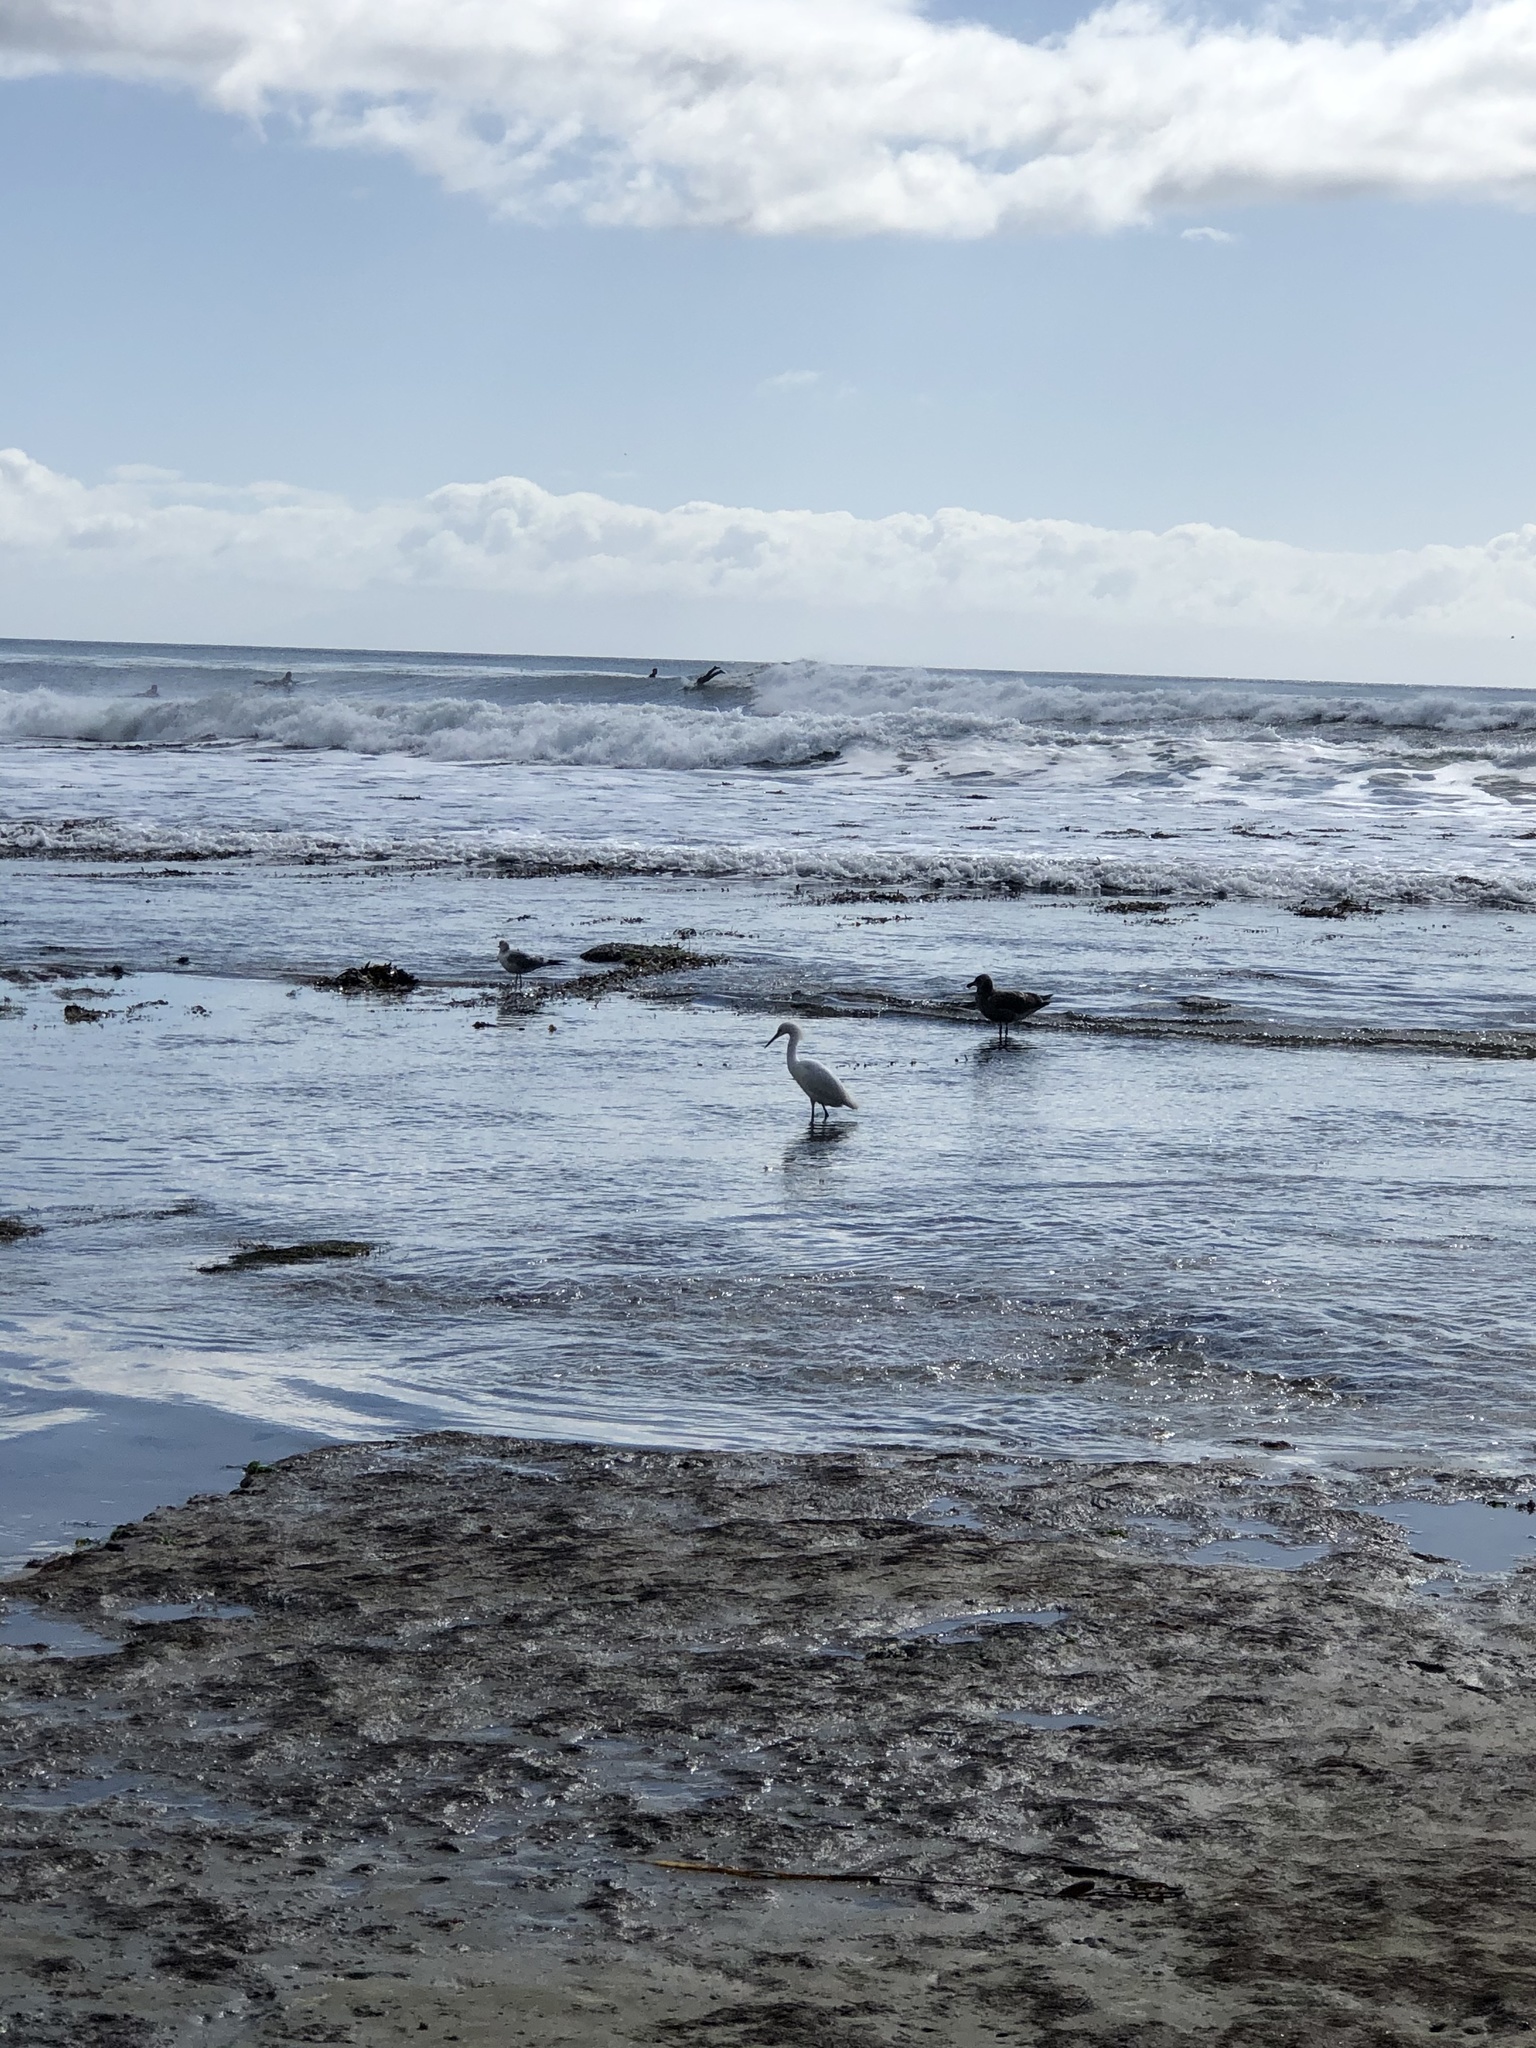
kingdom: Animalia
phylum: Chordata
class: Aves
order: Pelecaniformes
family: Ardeidae
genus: Egretta
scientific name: Egretta thula
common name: Snowy egret
